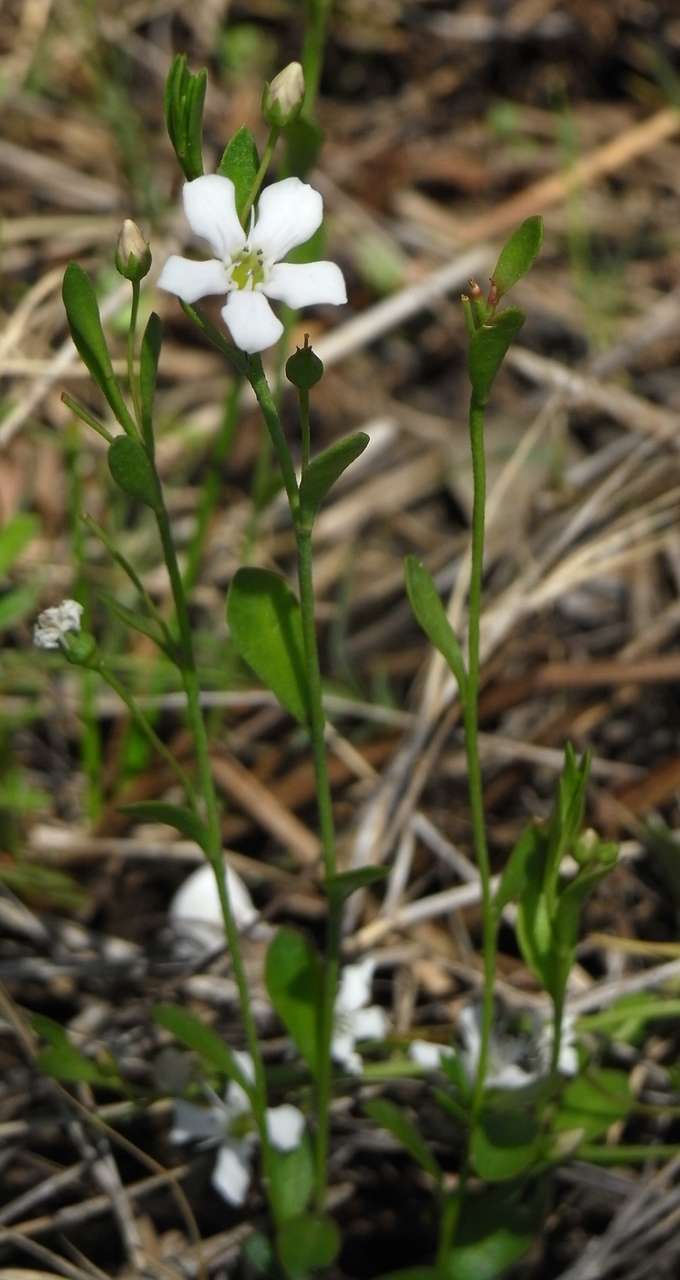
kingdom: Plantae
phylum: Tracheophyta
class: Magnoliopsida
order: Ericales
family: Primulaceae
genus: Samolus
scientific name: Samolus repens
